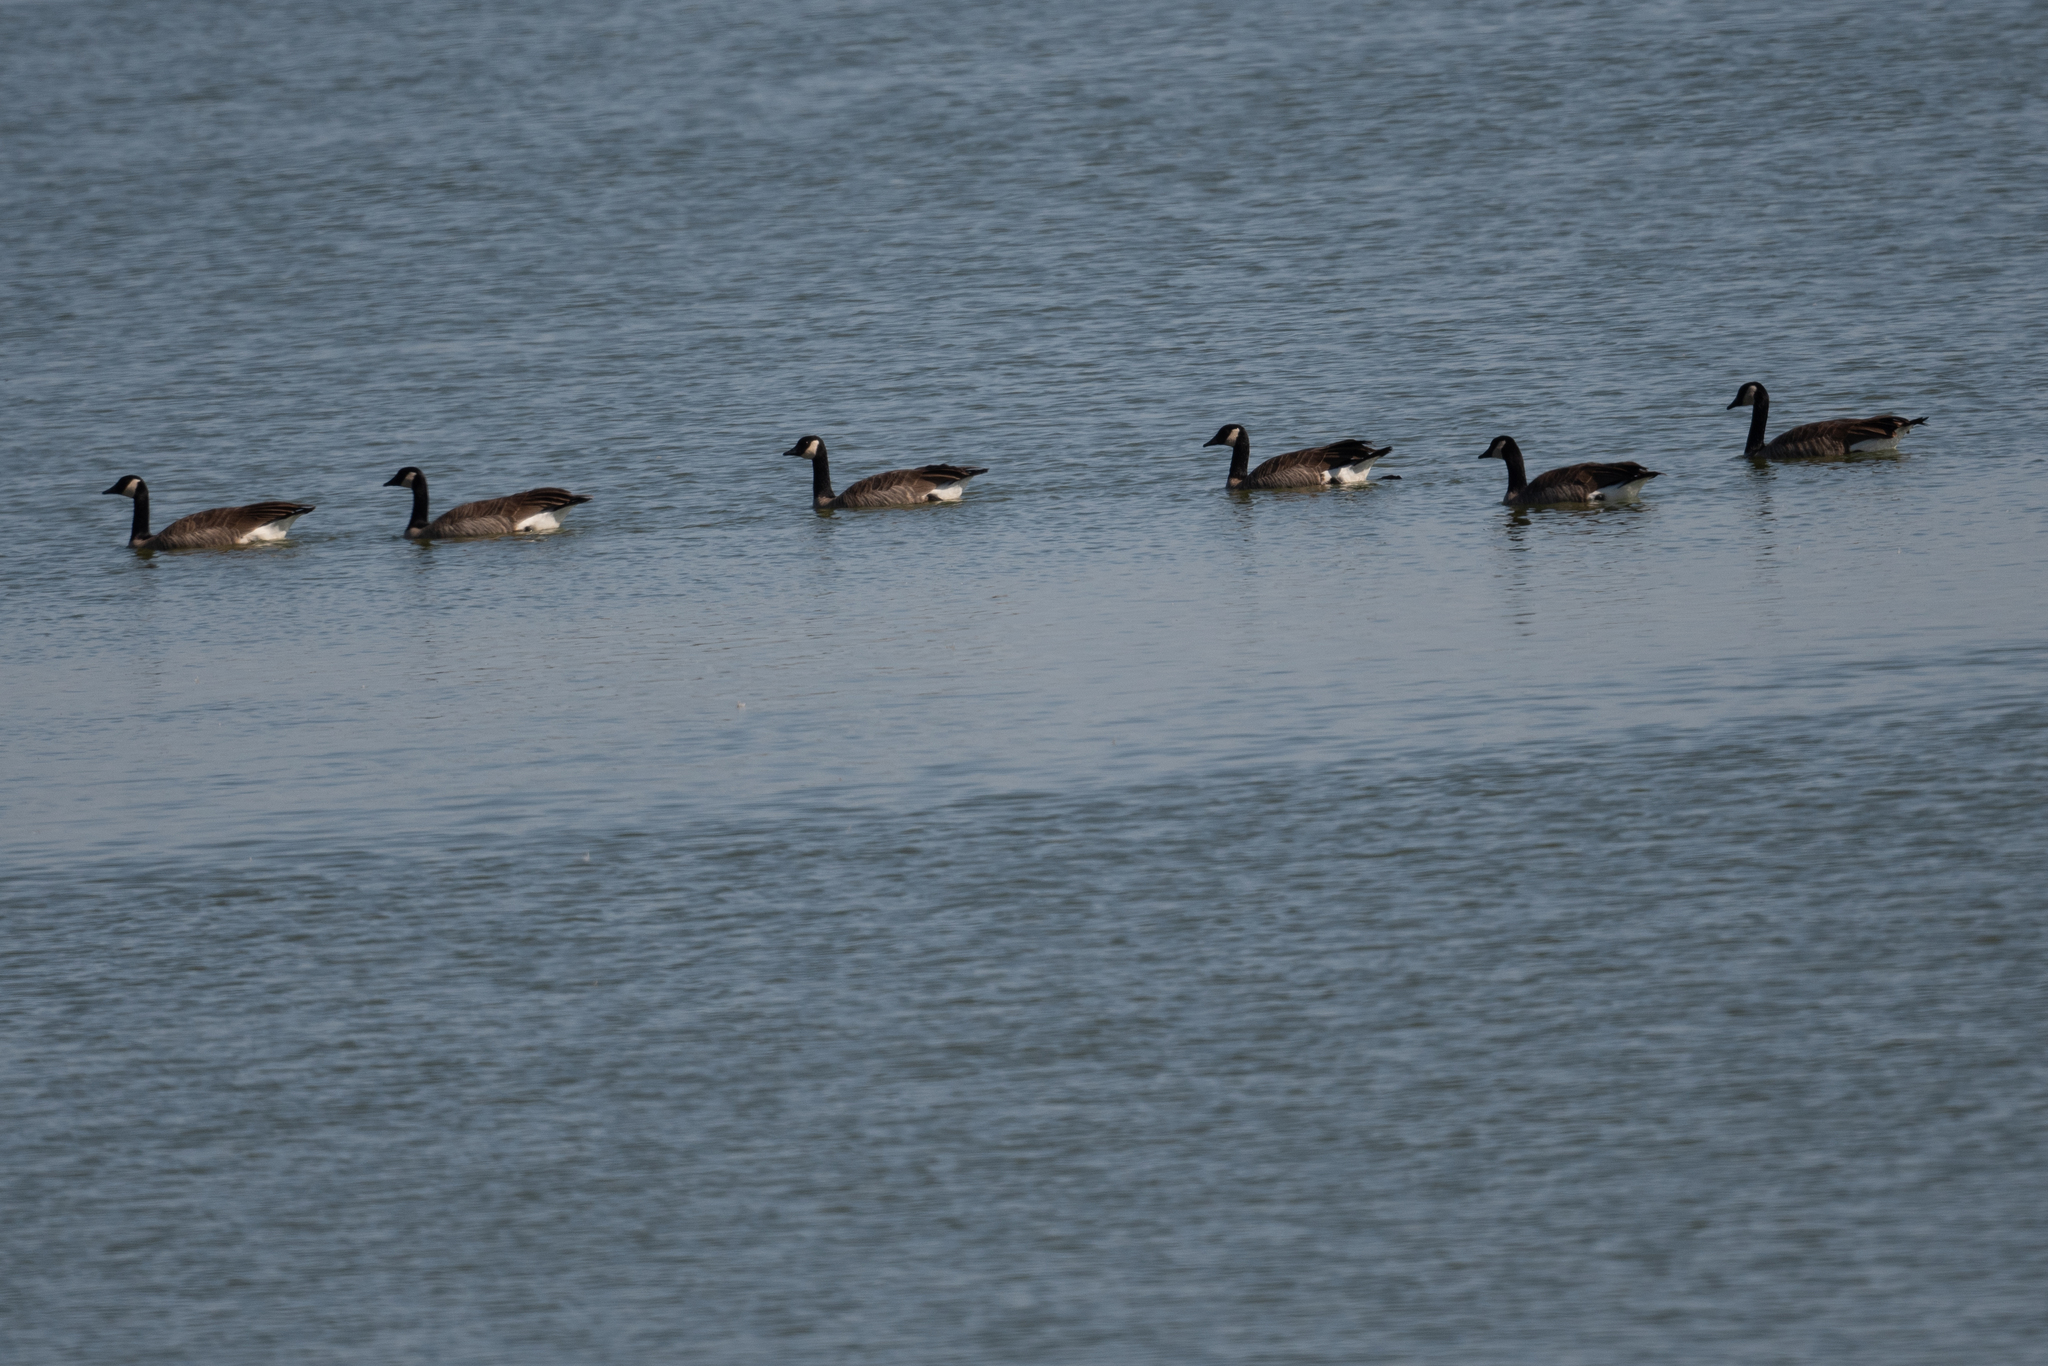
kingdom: Animalia
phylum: Chordata
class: Aves
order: Anseriformes
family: Anatidae
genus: Branta
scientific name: Branta canadensis
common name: Canada goose
